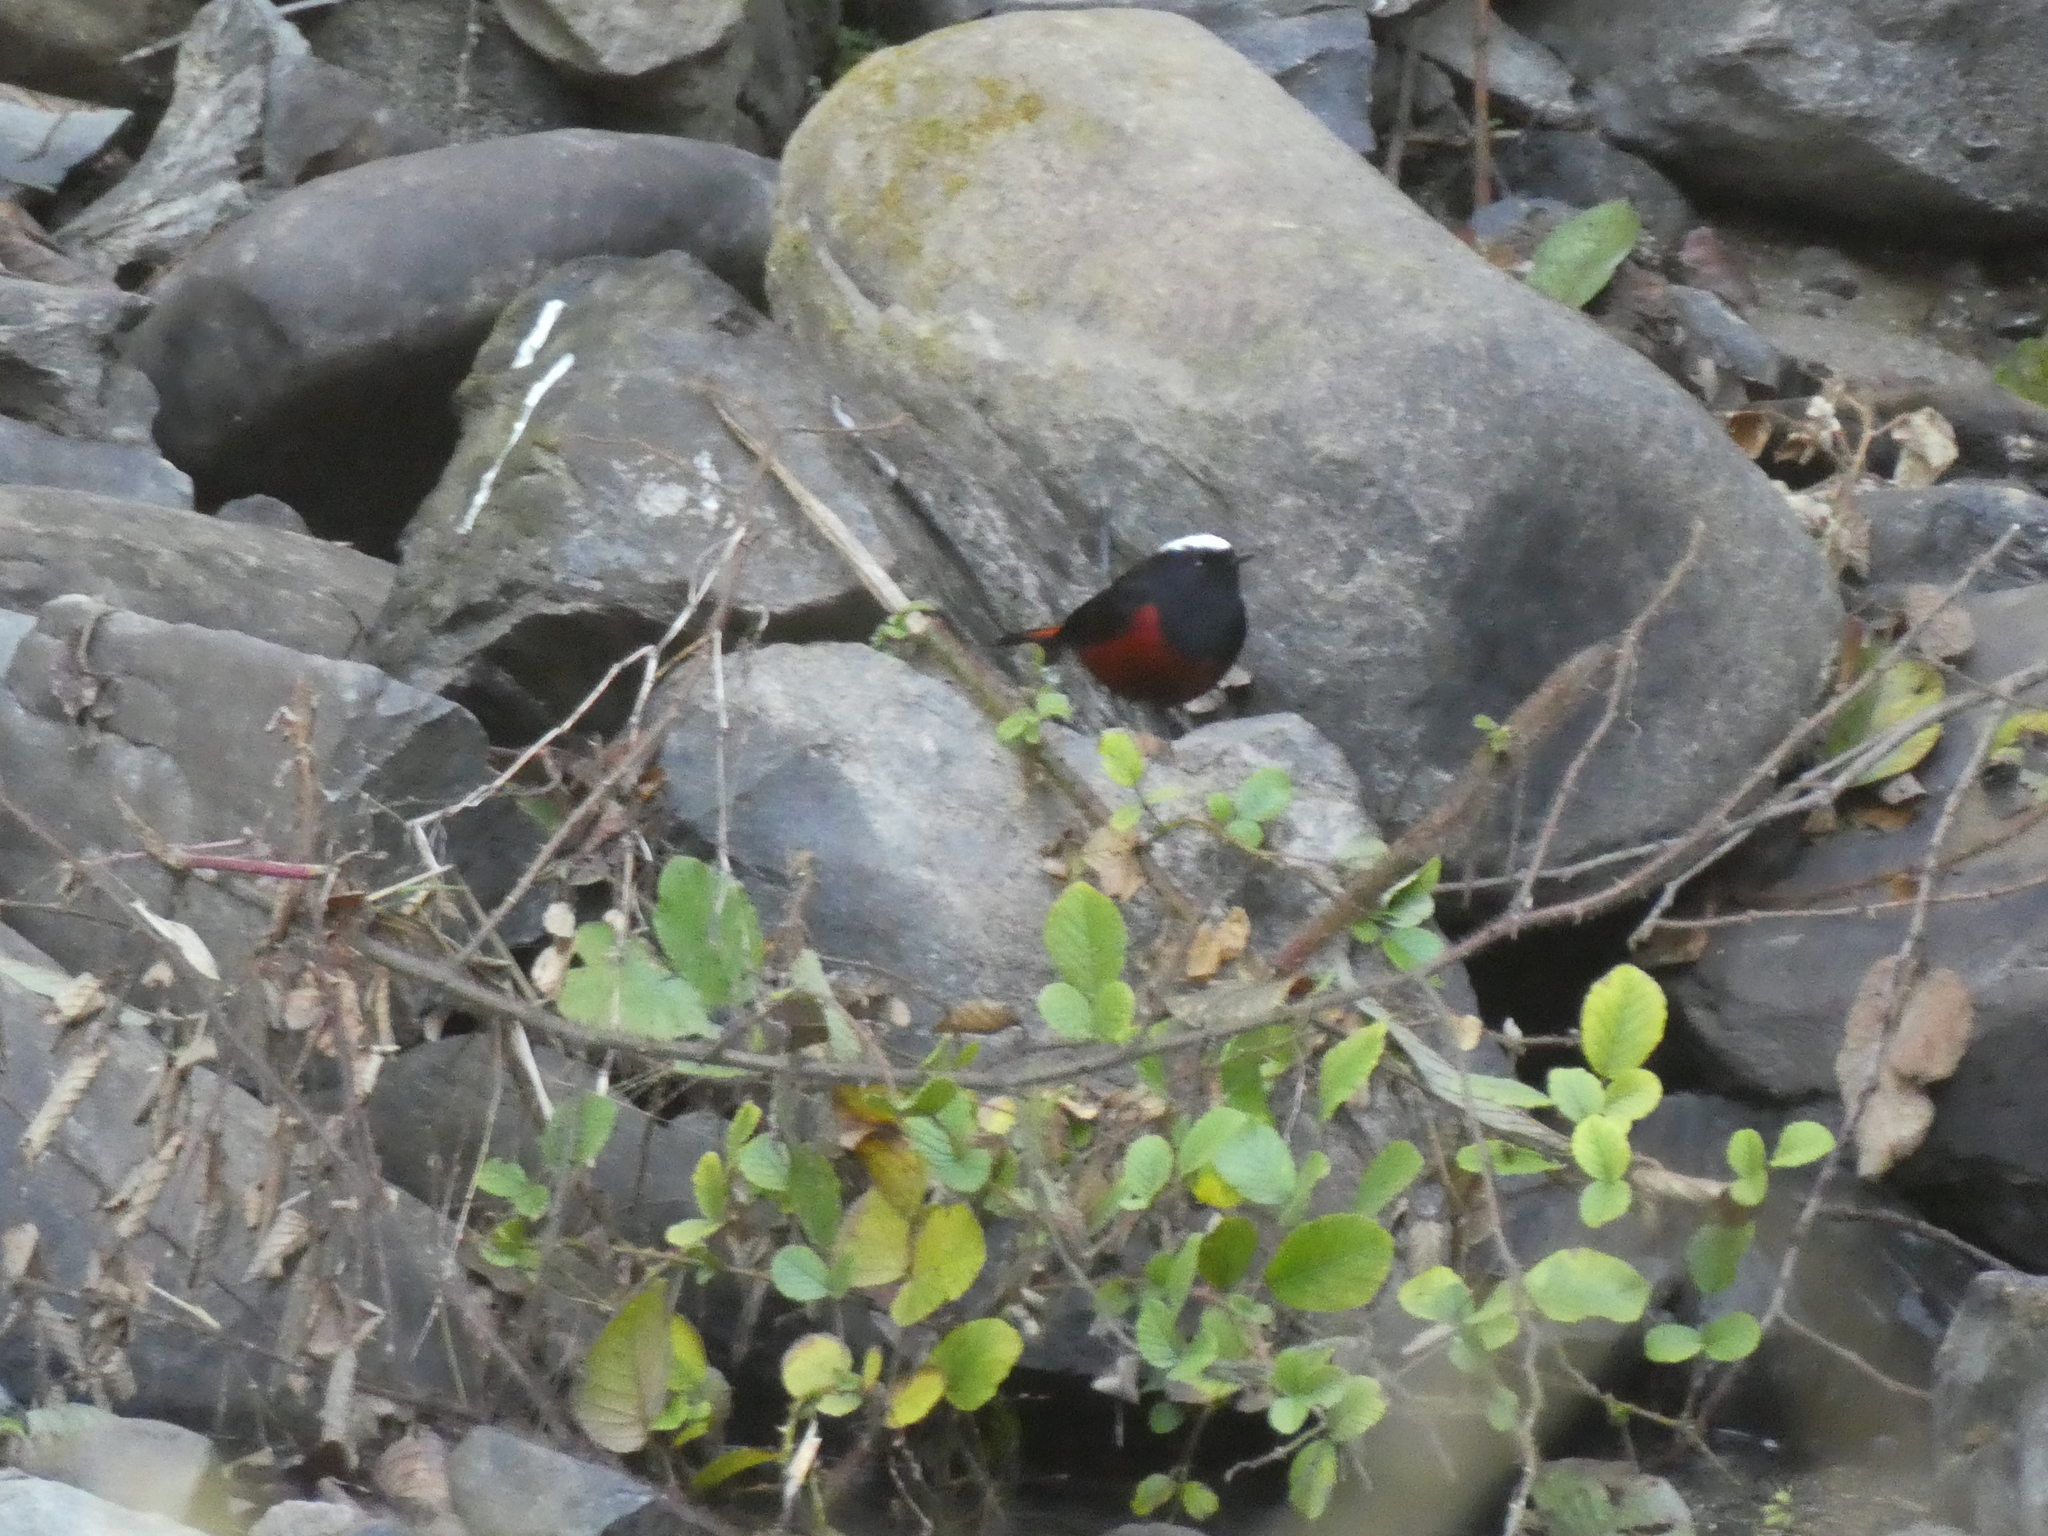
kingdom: Animalia
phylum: Chordata
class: Aves
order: Passeriformes
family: Muscicapidae
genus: Chaimarrornis
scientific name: Chaimarrornis leucocephalus
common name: White-capped redstart
